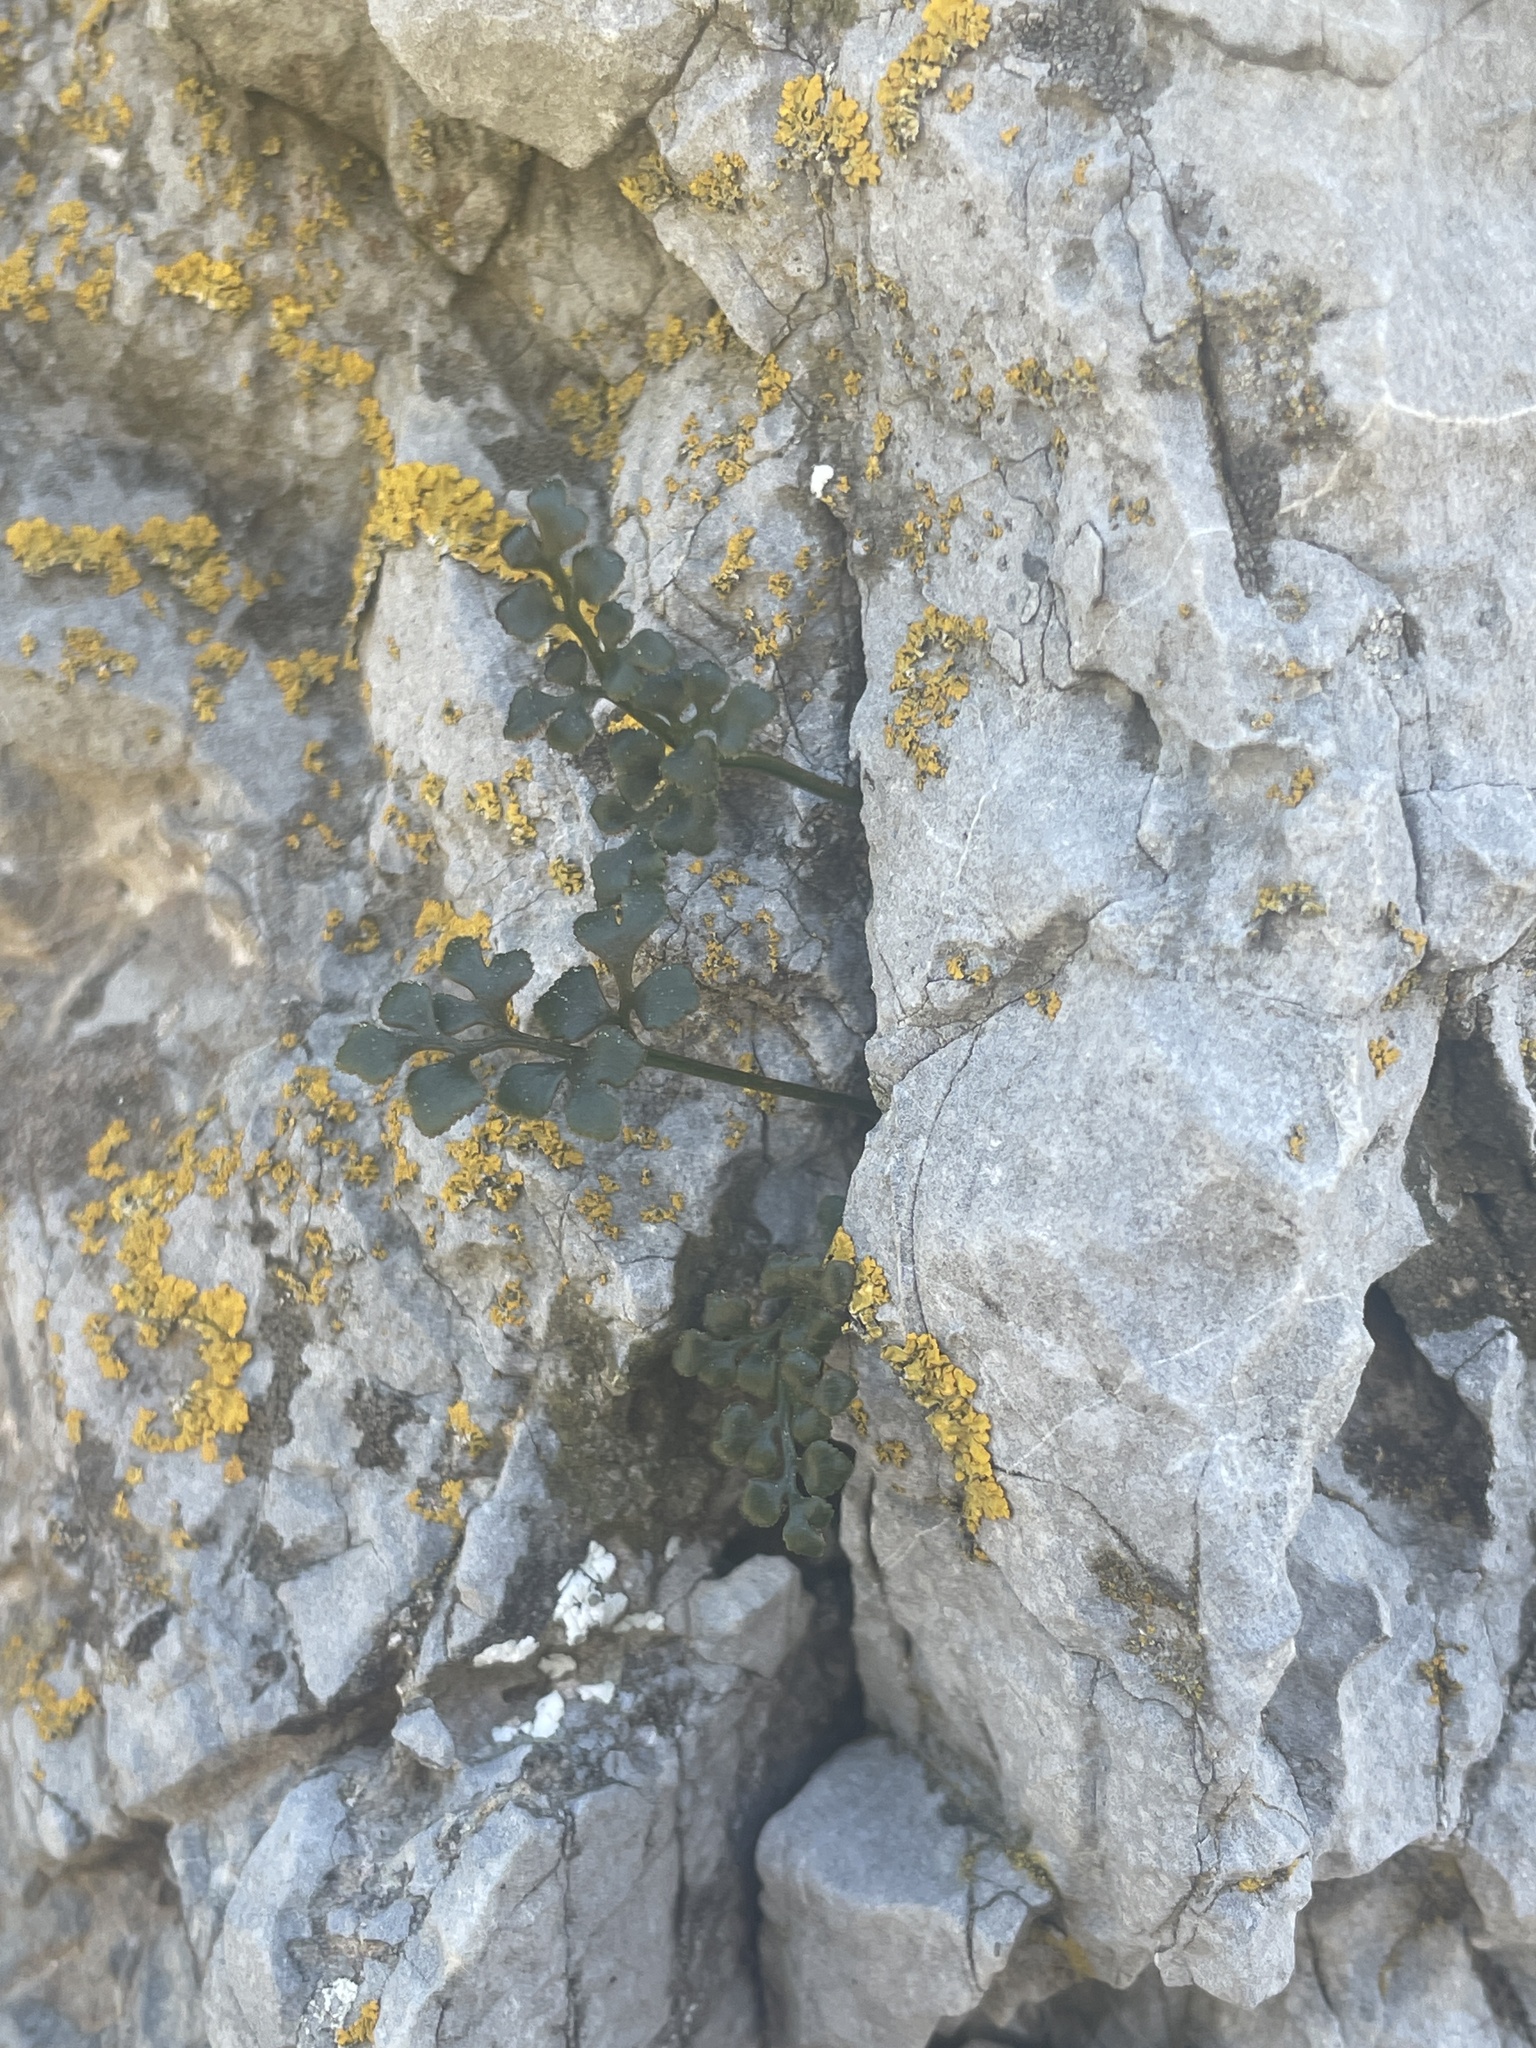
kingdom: Plantae
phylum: Tracheophyta
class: Polypodiopsida
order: Polypodiales
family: Aspleniaceae
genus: Asplenium
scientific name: Asplenium ruta-muraria
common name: Wall-rue
